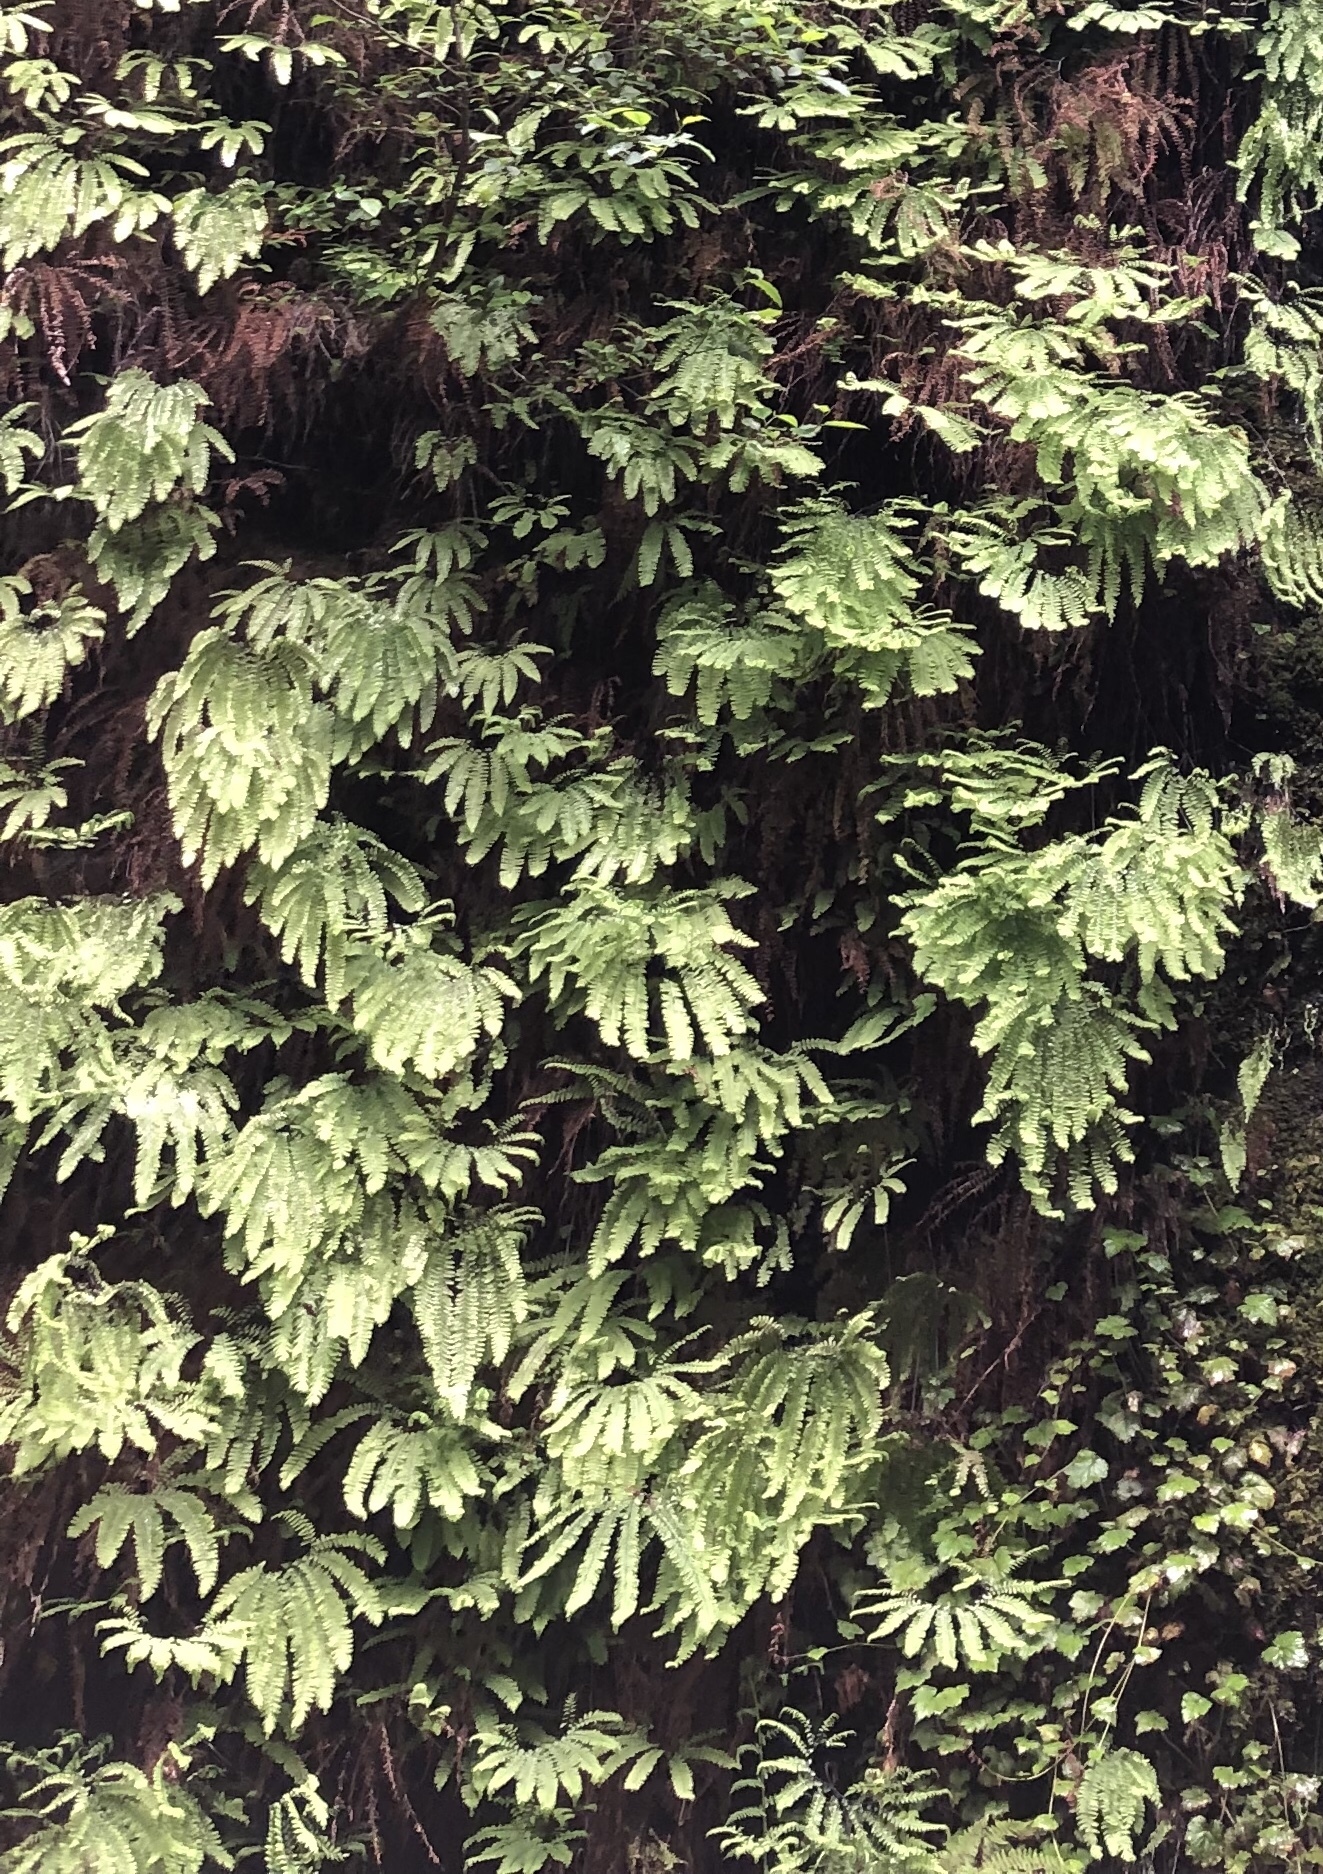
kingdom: Plantae
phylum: Tracheophyta
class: Polypodiopsida
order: Polypodiales
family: Pteridaceae
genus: Adiantum
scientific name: Adiantum aleuticum
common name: Aleutian maidenhair fern
